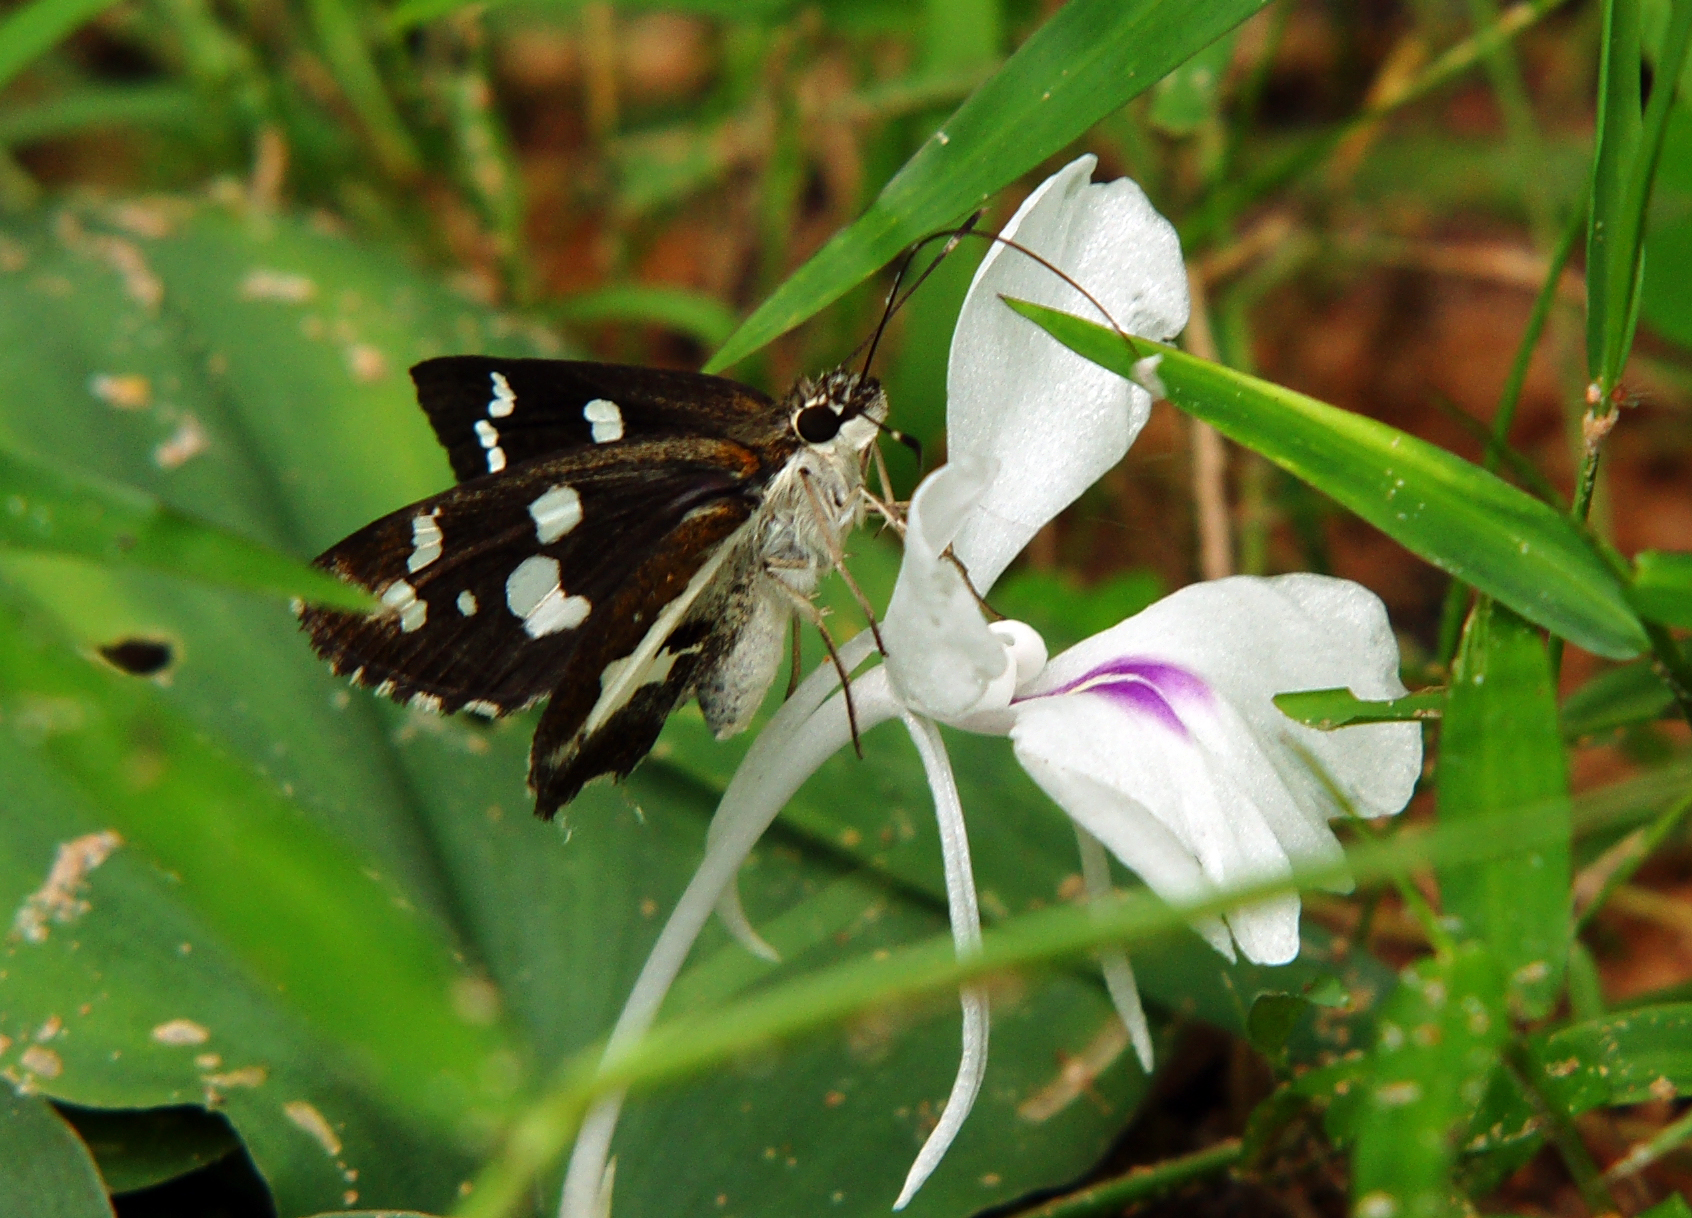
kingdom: Animalia
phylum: Arthropoda
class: Insecta
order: Lepidoptera
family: Hesperiidae
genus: Udaspes
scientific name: Udaspes folus
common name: Grass demon
